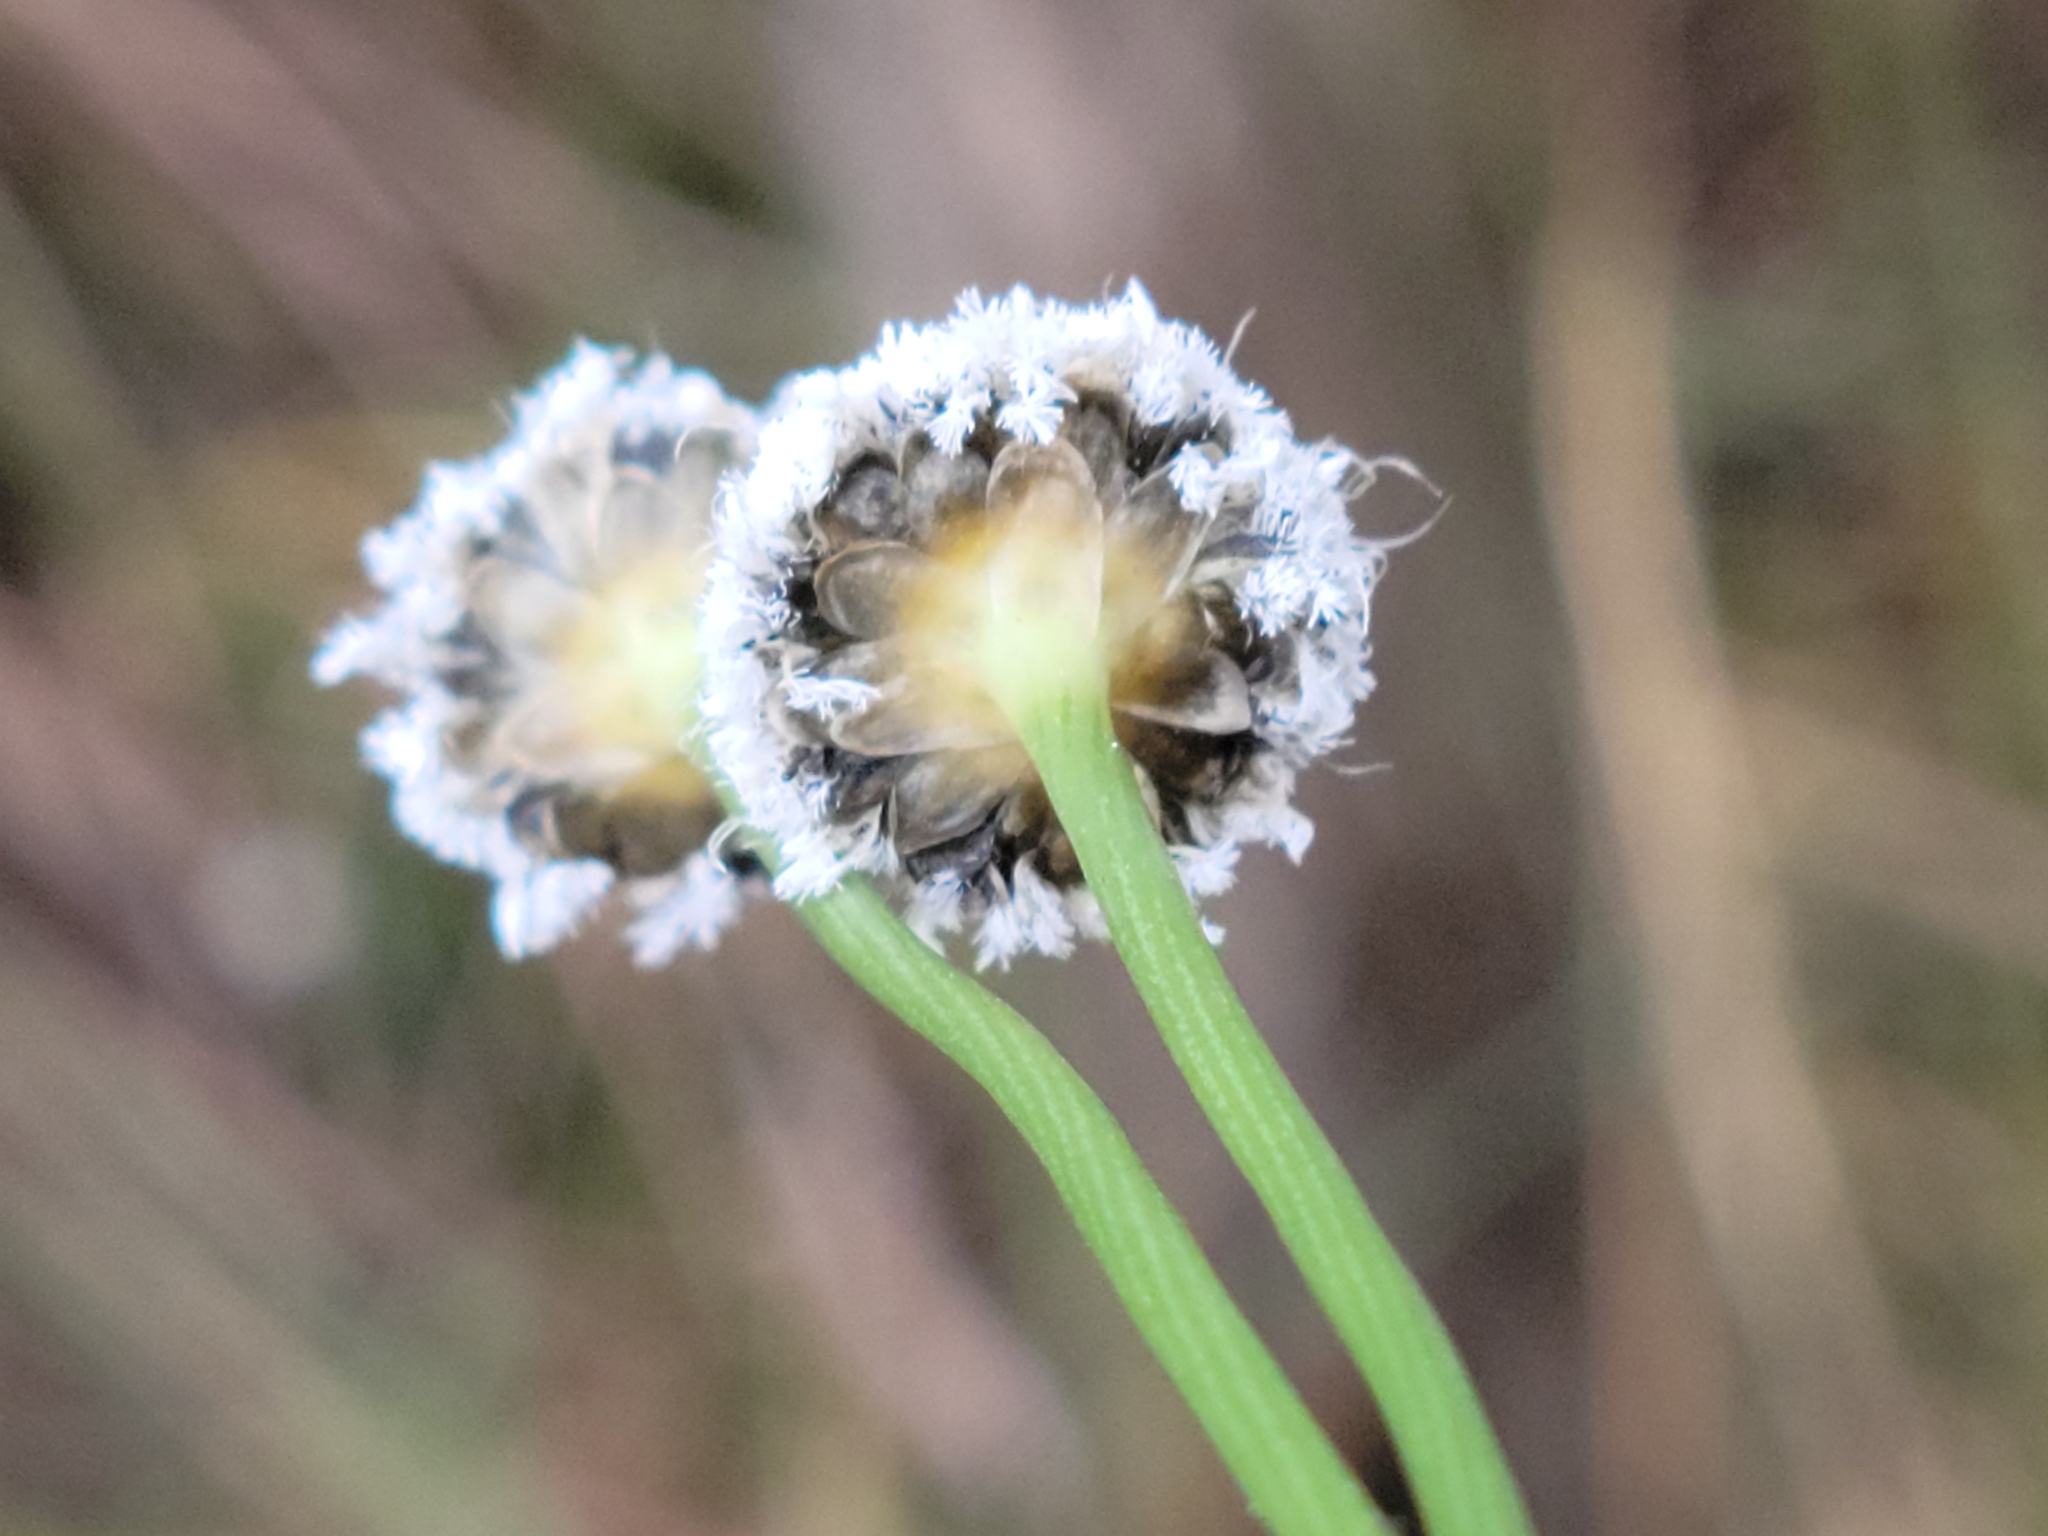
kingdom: Plantae
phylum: Tracheophyta
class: Liliopsida
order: Poales
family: Eriocaulaceae
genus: Eriocaulon
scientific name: Eriocaulon compressum
